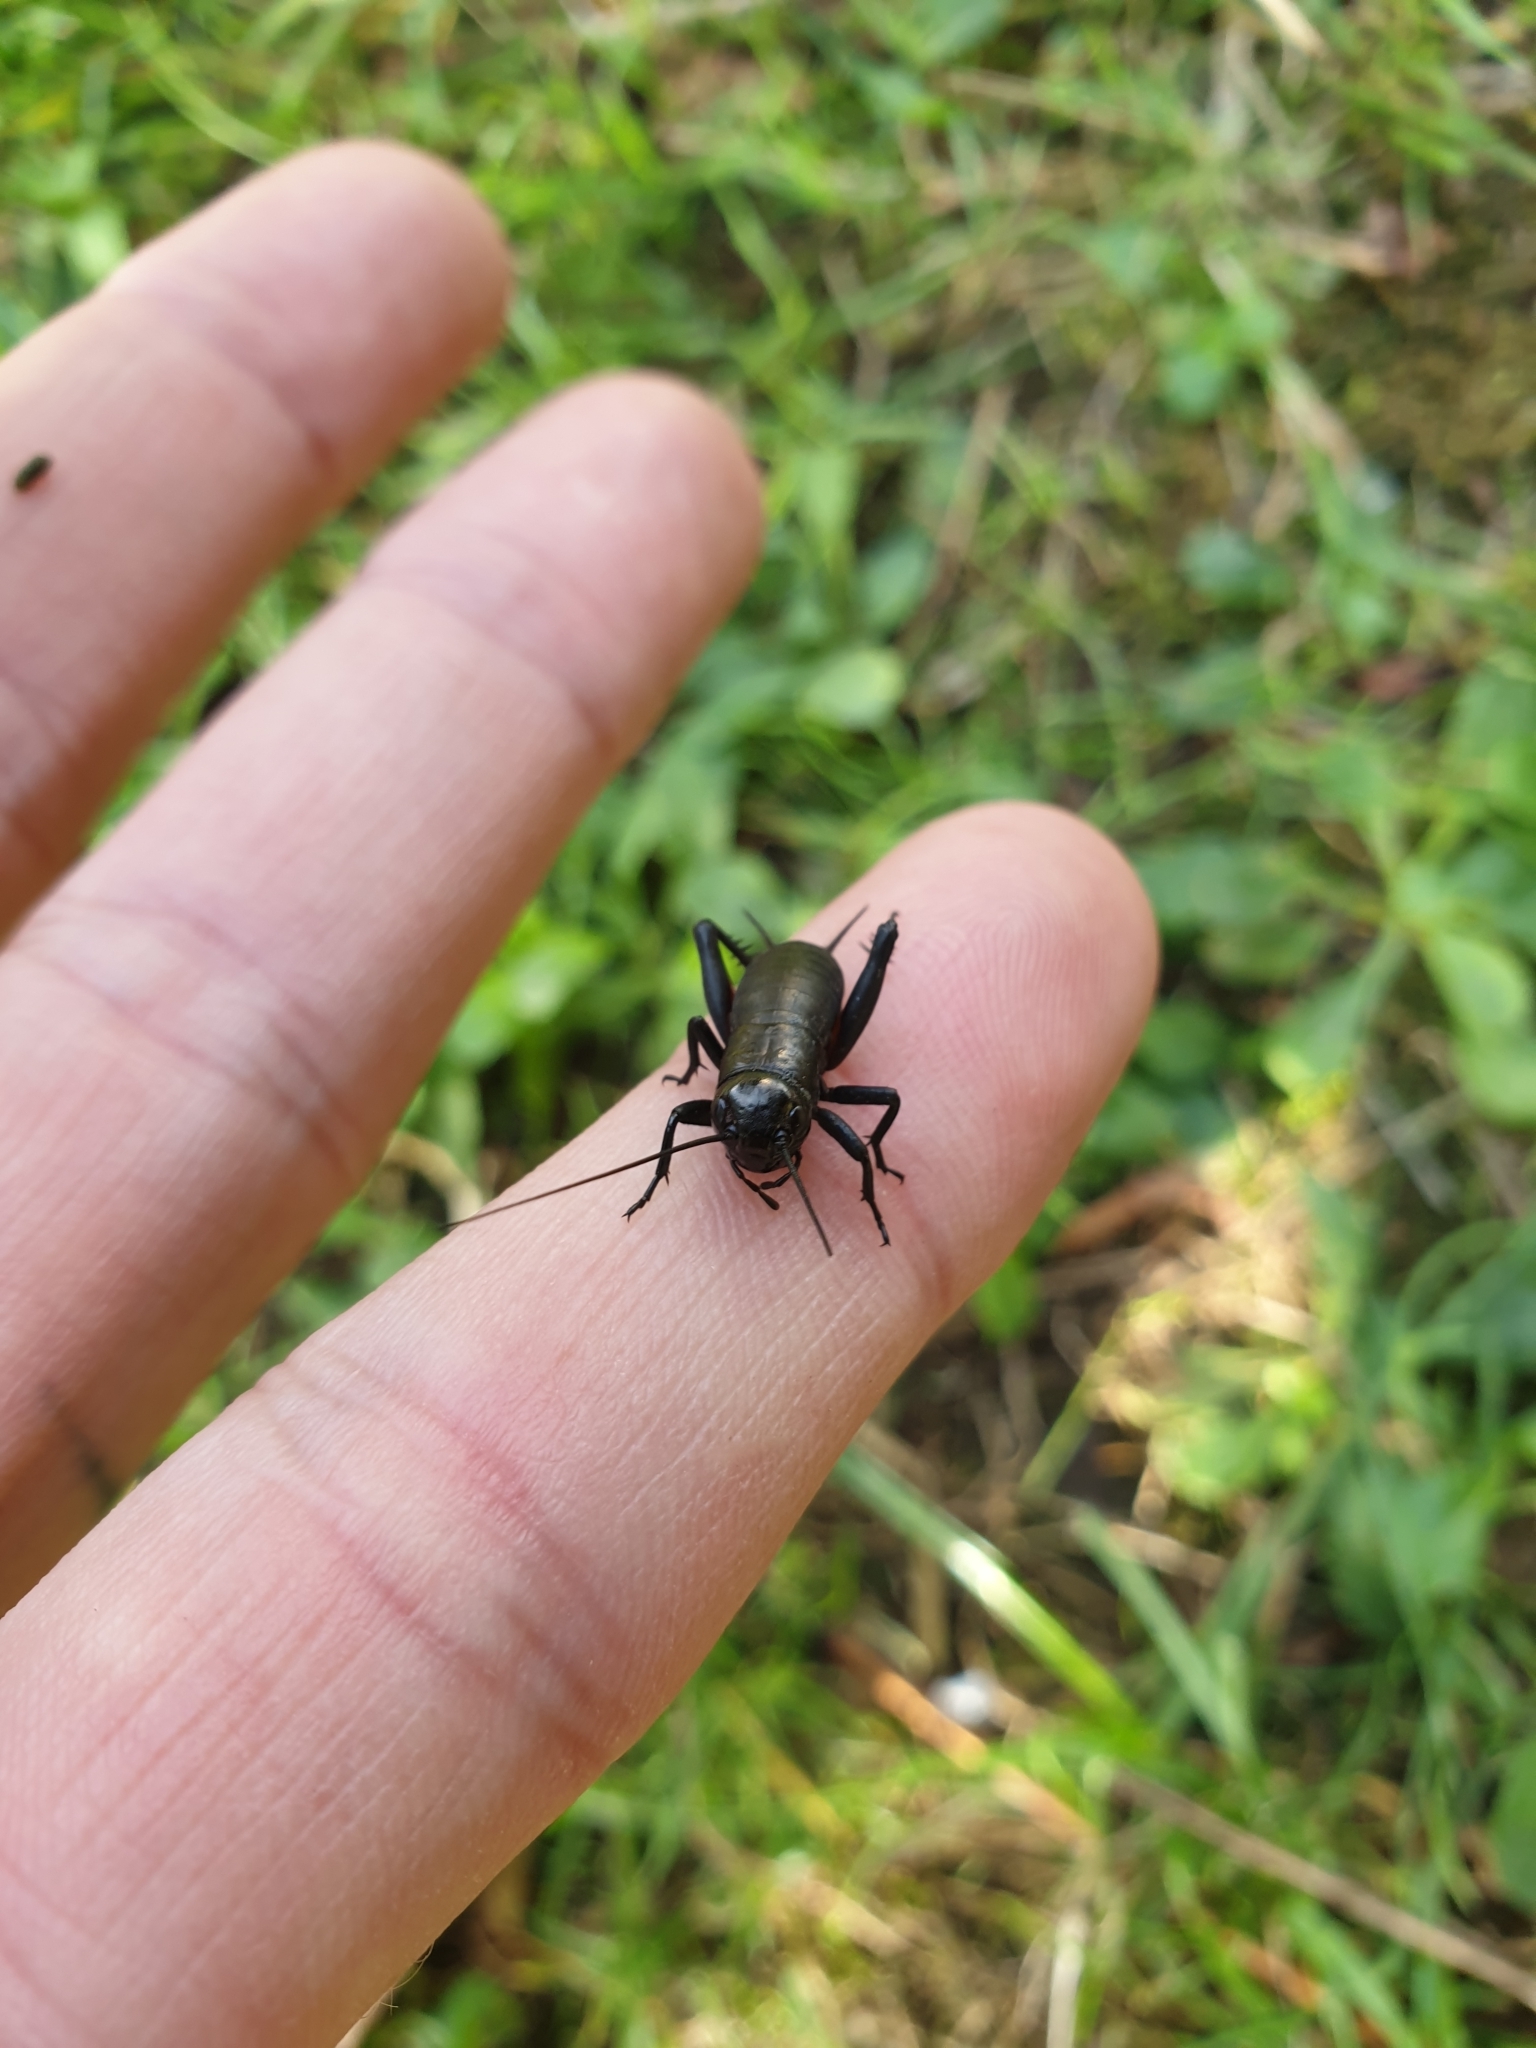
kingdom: Animalia
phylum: Arthropoda
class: Insecta
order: Orthoptera
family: Gryllidae
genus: Gryllus
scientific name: Gryllus campestris
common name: Field cricket
